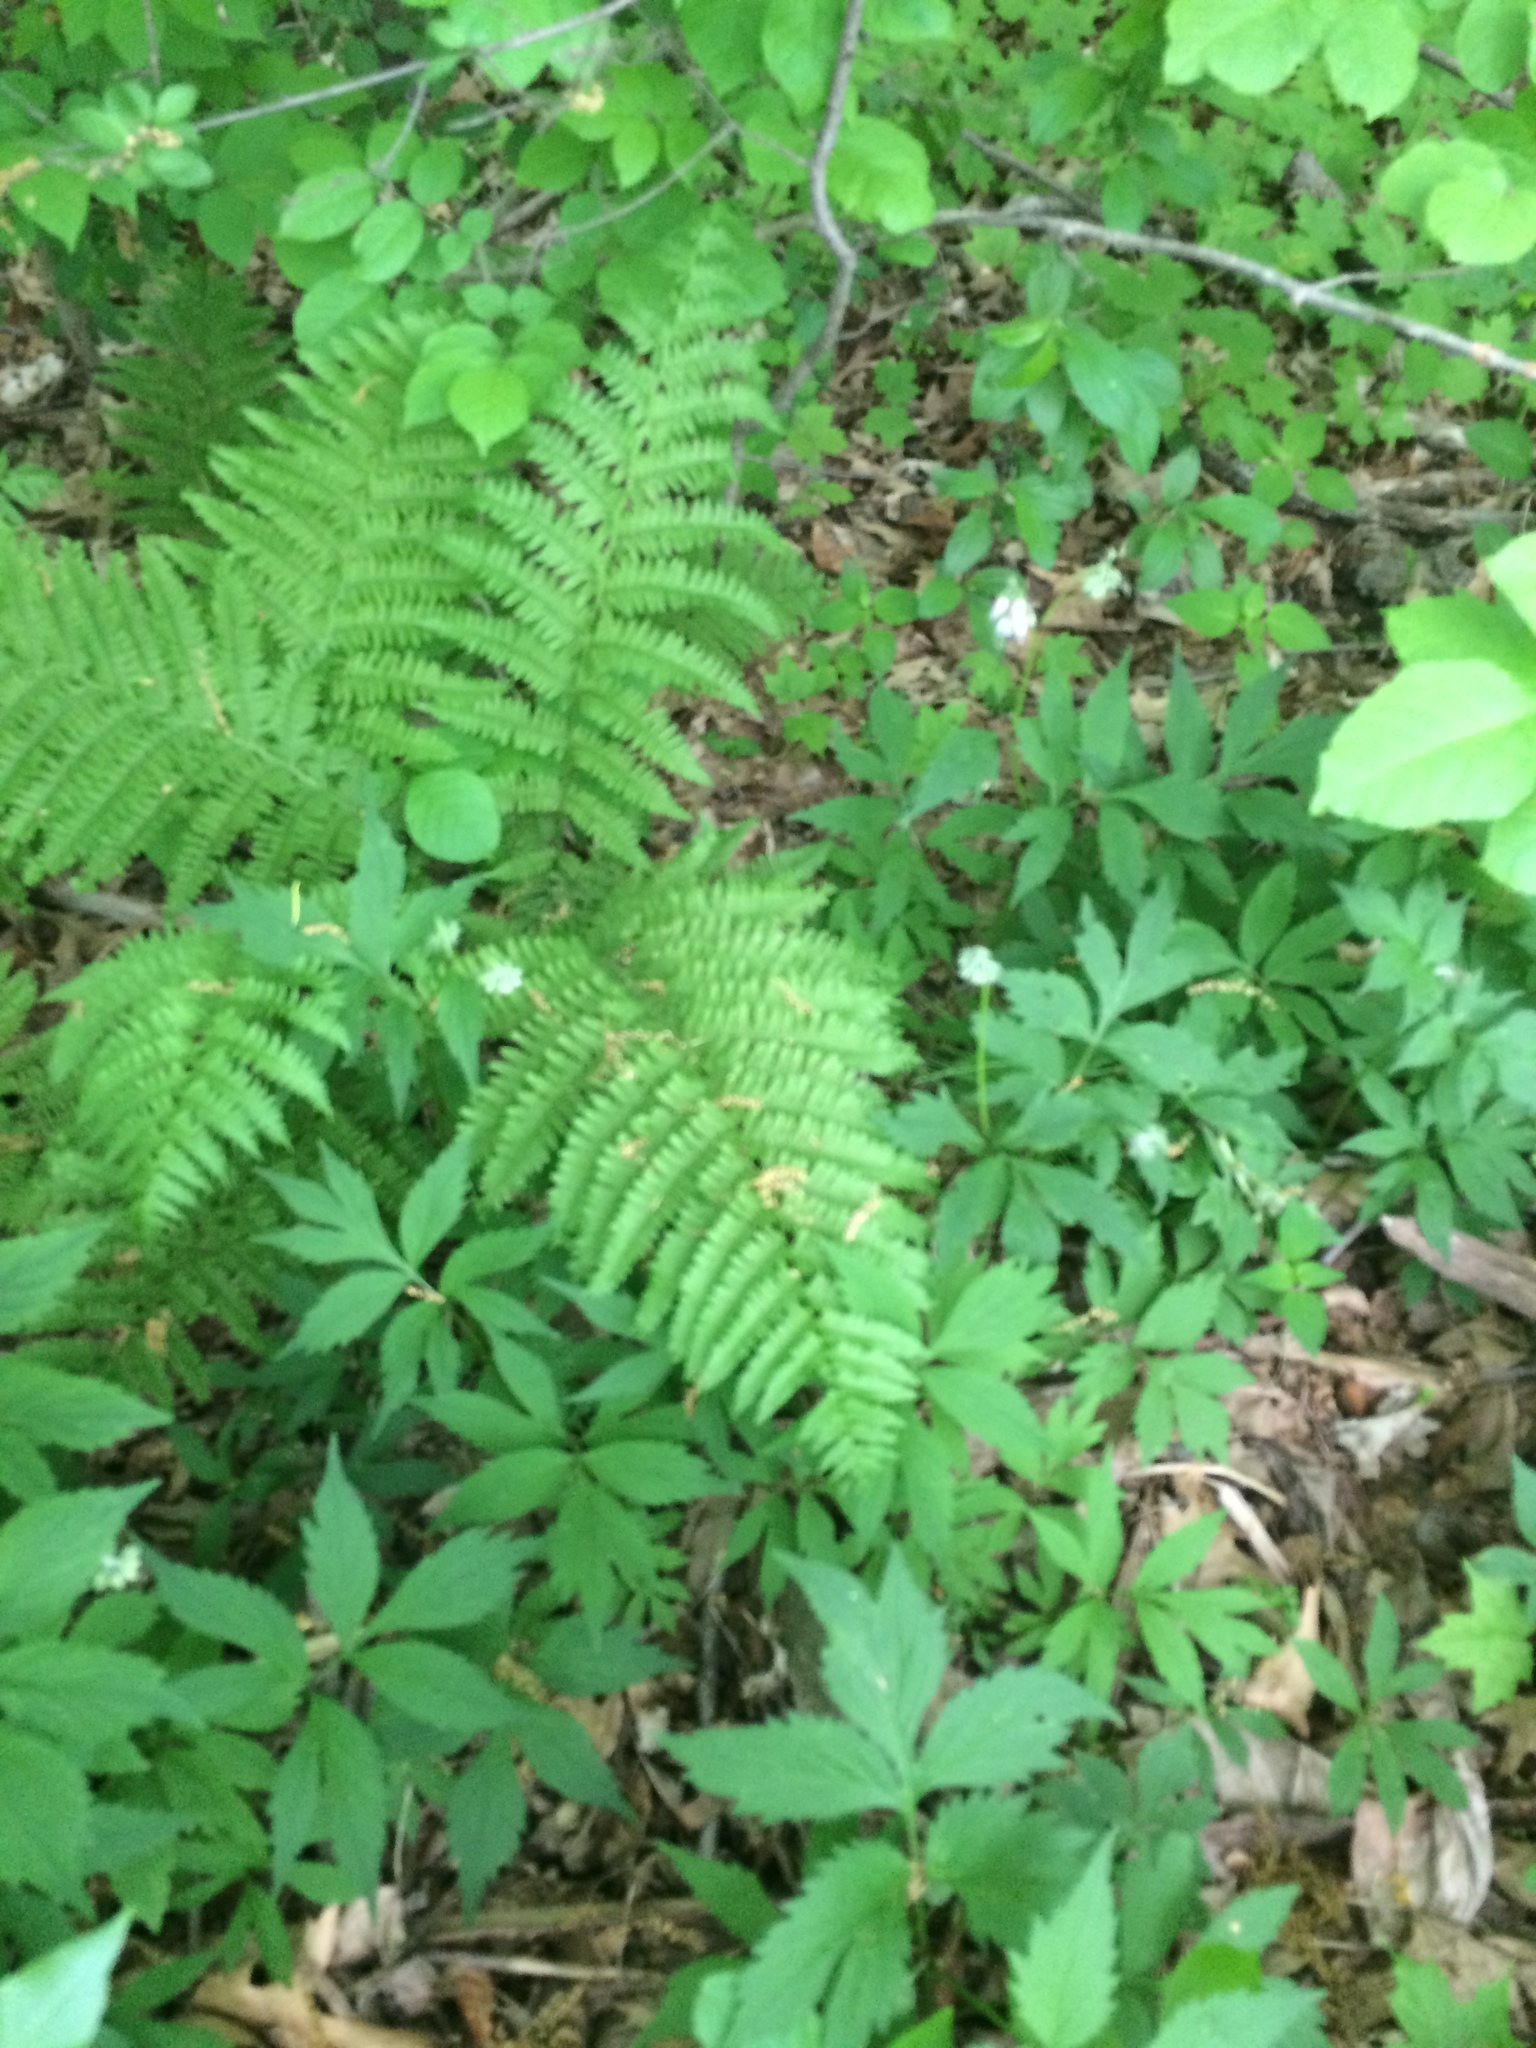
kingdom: Plantae
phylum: Tracheophyta
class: Magnoliopsida
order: Boraginales
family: Hydrophyllaceae
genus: Hydrophyllum
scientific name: Hydrophyllum virginianum
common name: Virginia waterleaf
